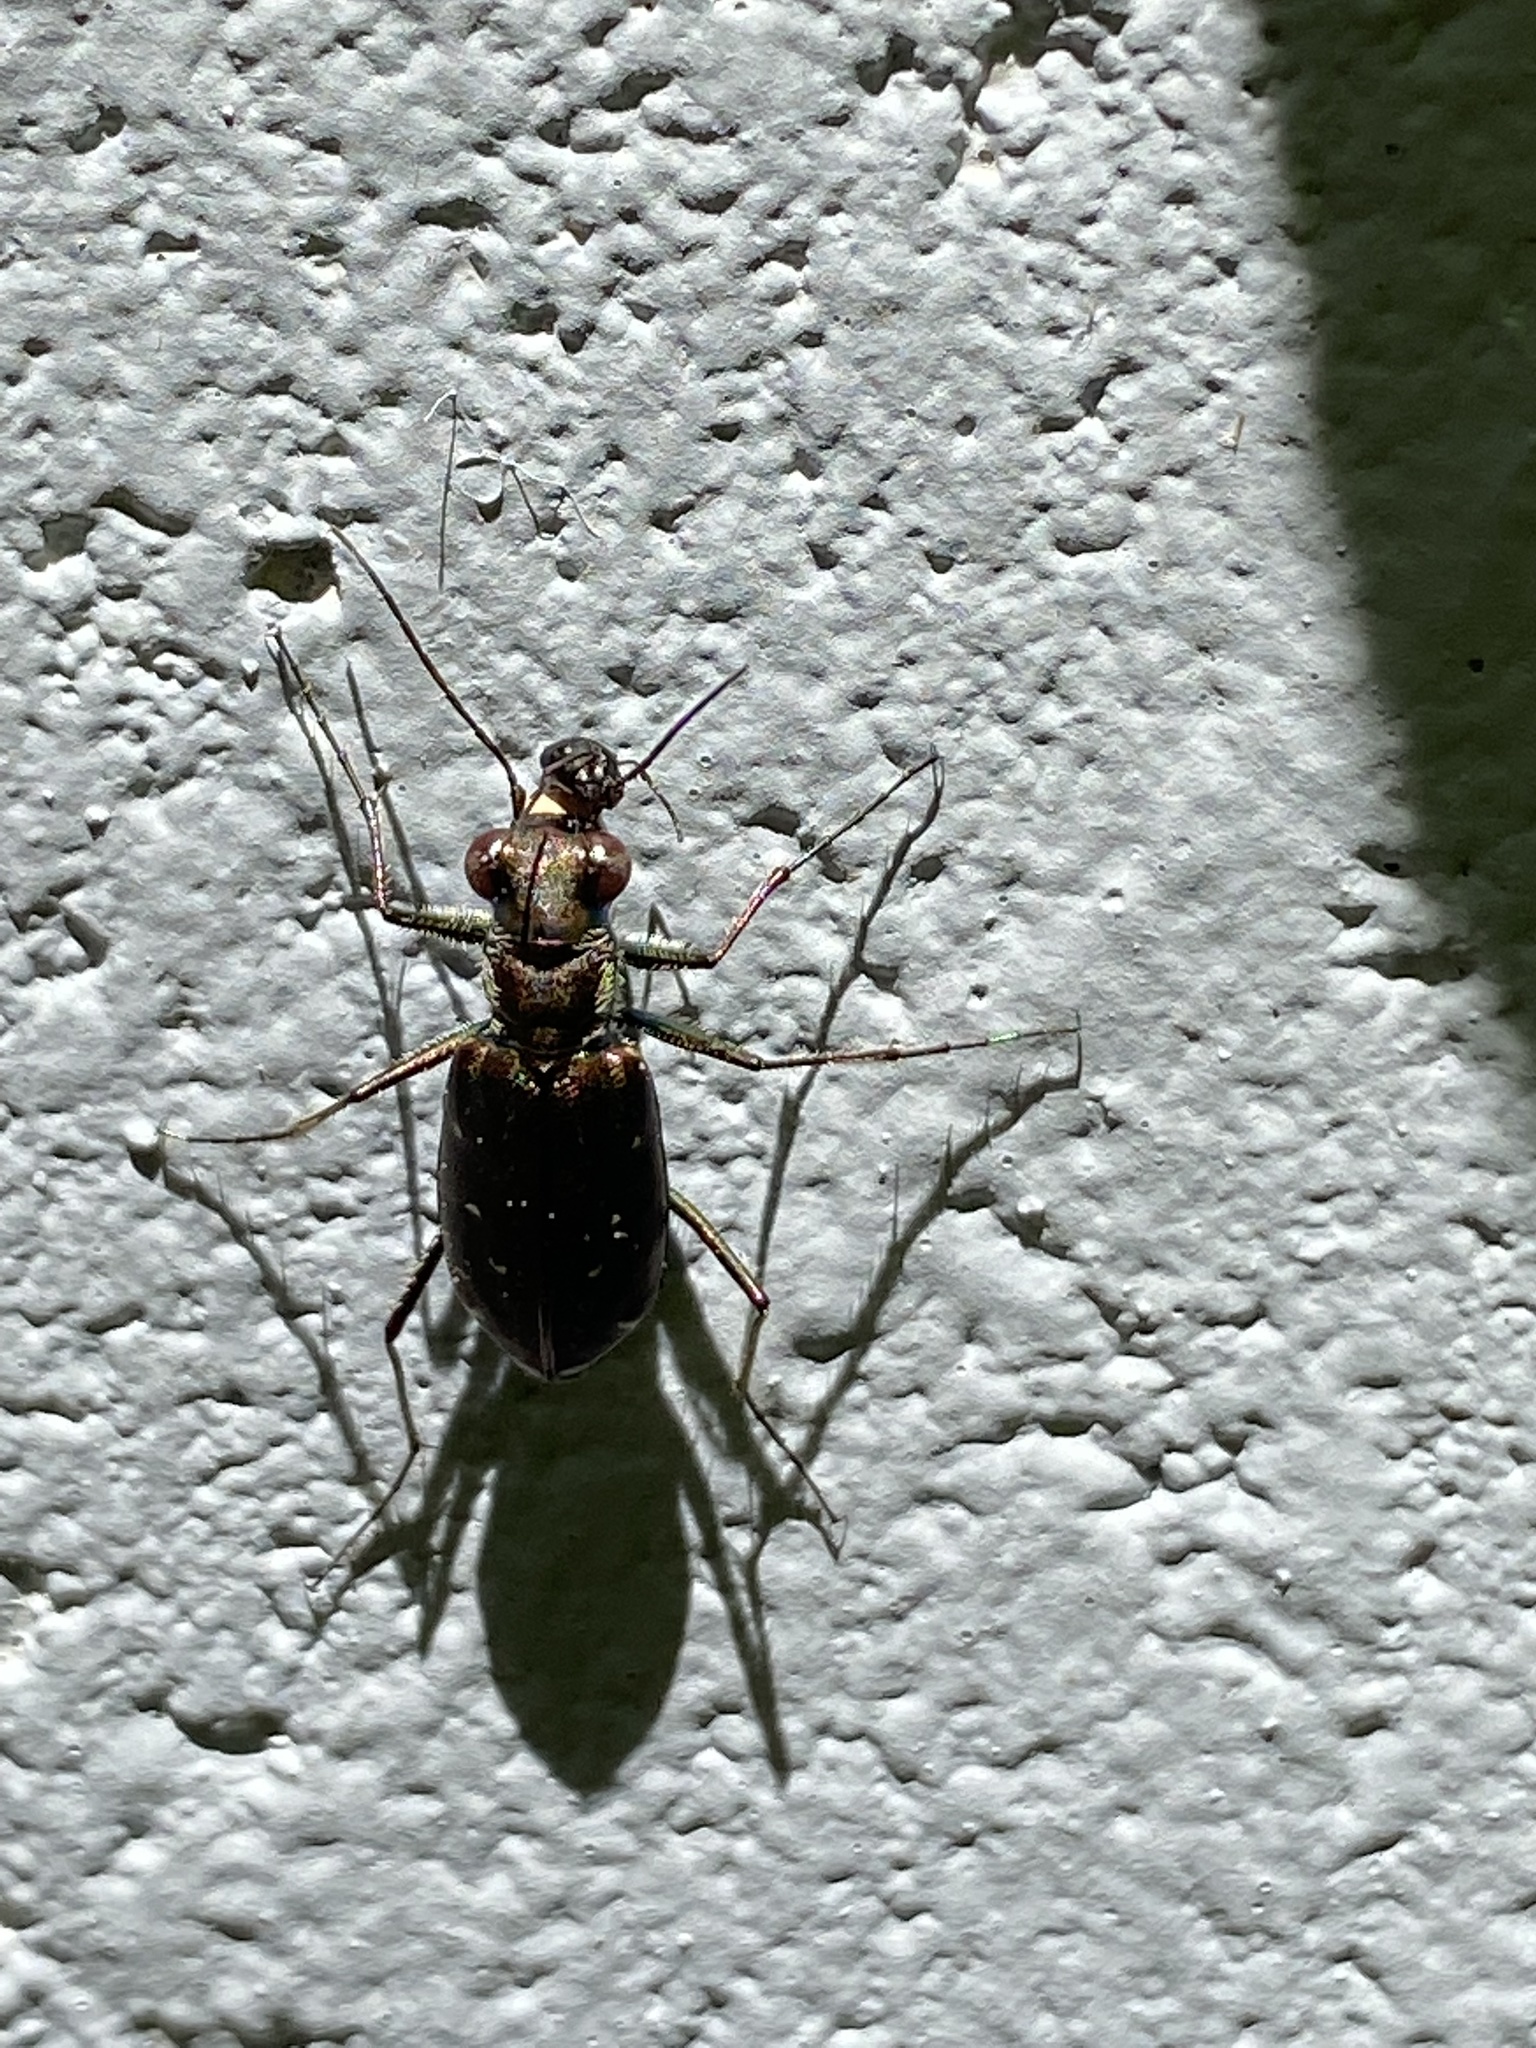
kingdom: Animalia
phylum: Arthropoda
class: Insecta
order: Coleoptera
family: Carabidae
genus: Cicindela
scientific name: Cicindela punctulata
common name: Punctured tiger beetle
